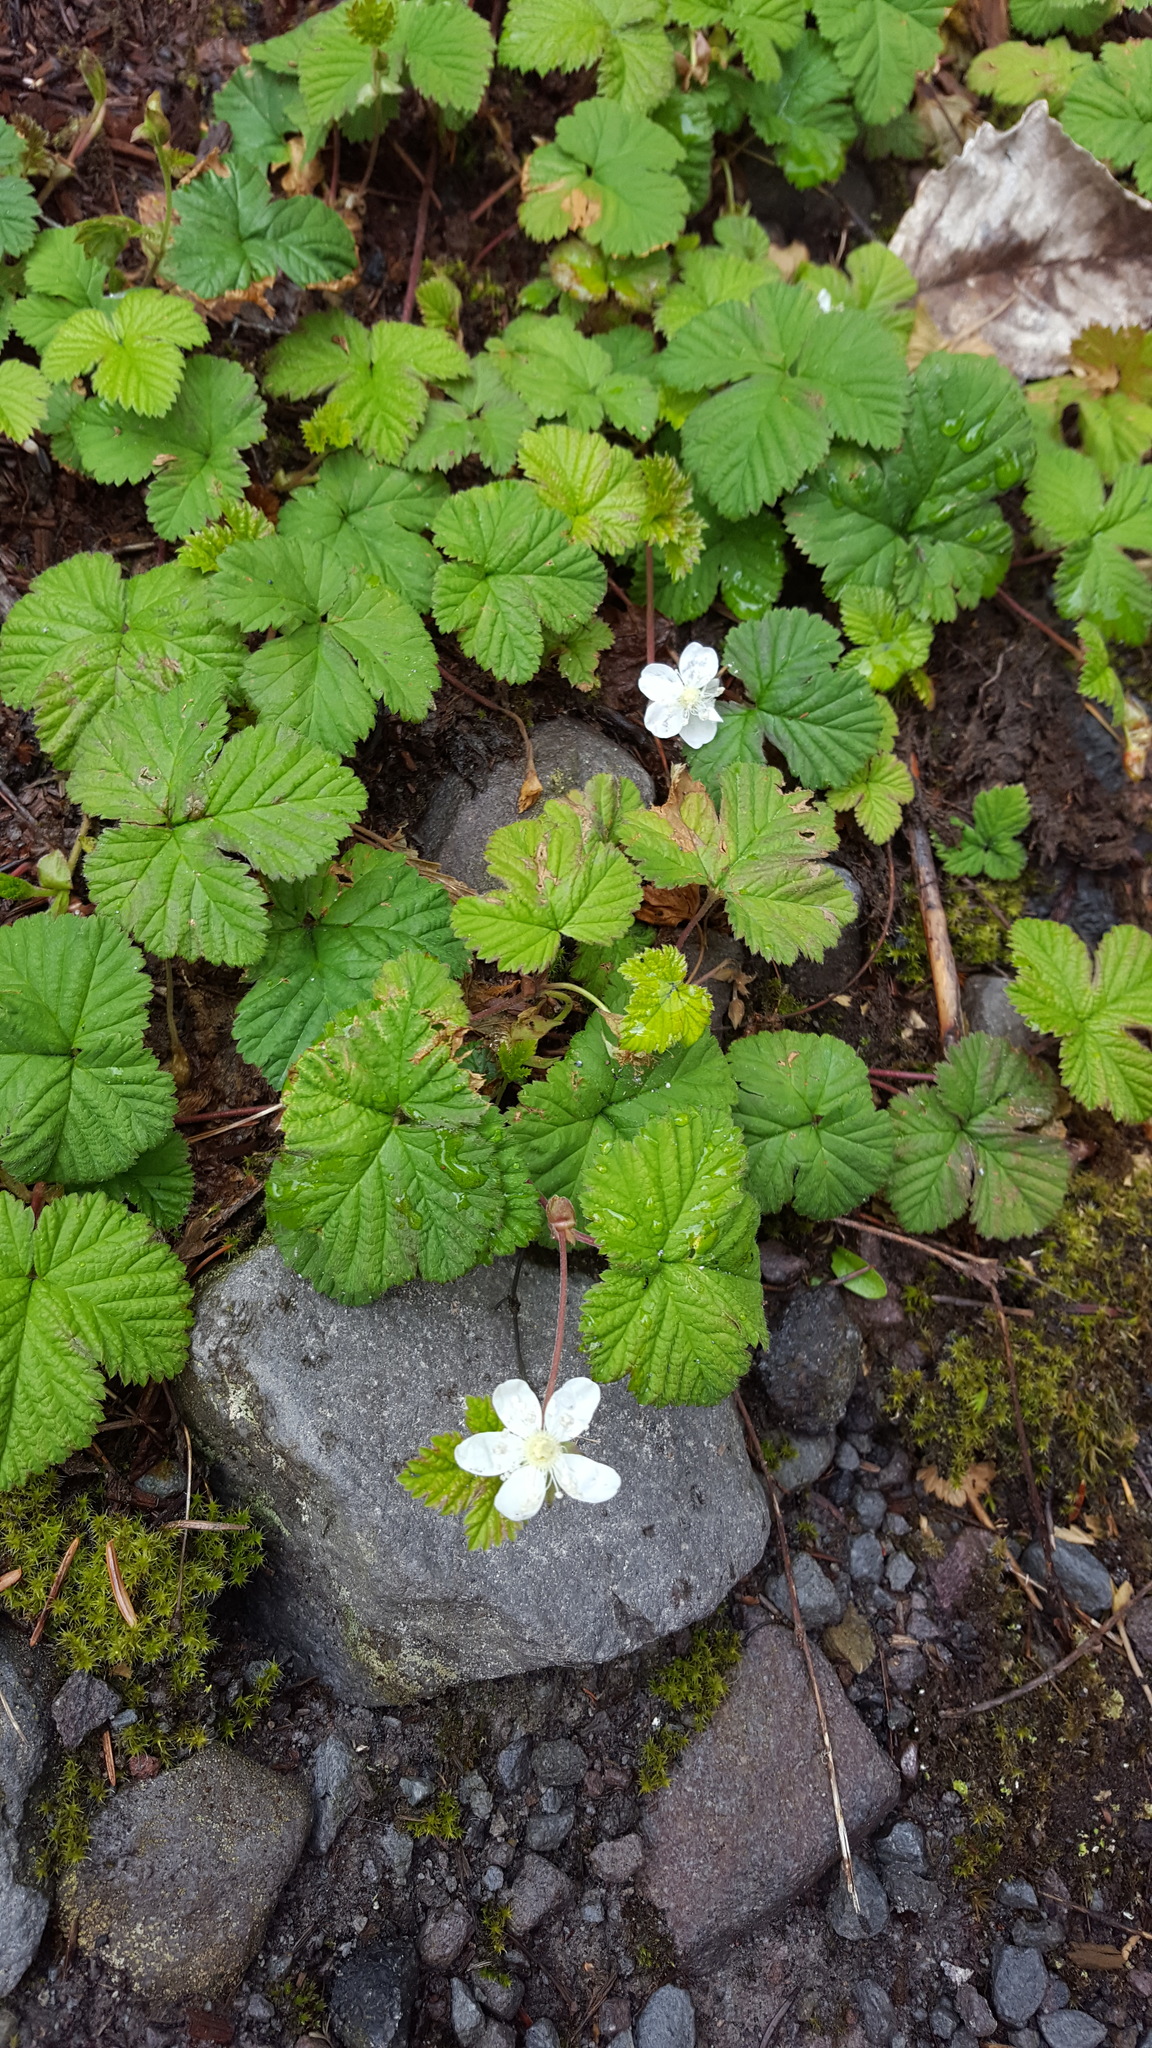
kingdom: Plantae
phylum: Tracheophyta
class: Magnoliopsida
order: Rosales
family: Rosaceae
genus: Rubus
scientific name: Rubus lasiococcus
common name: Dwarf bramble
